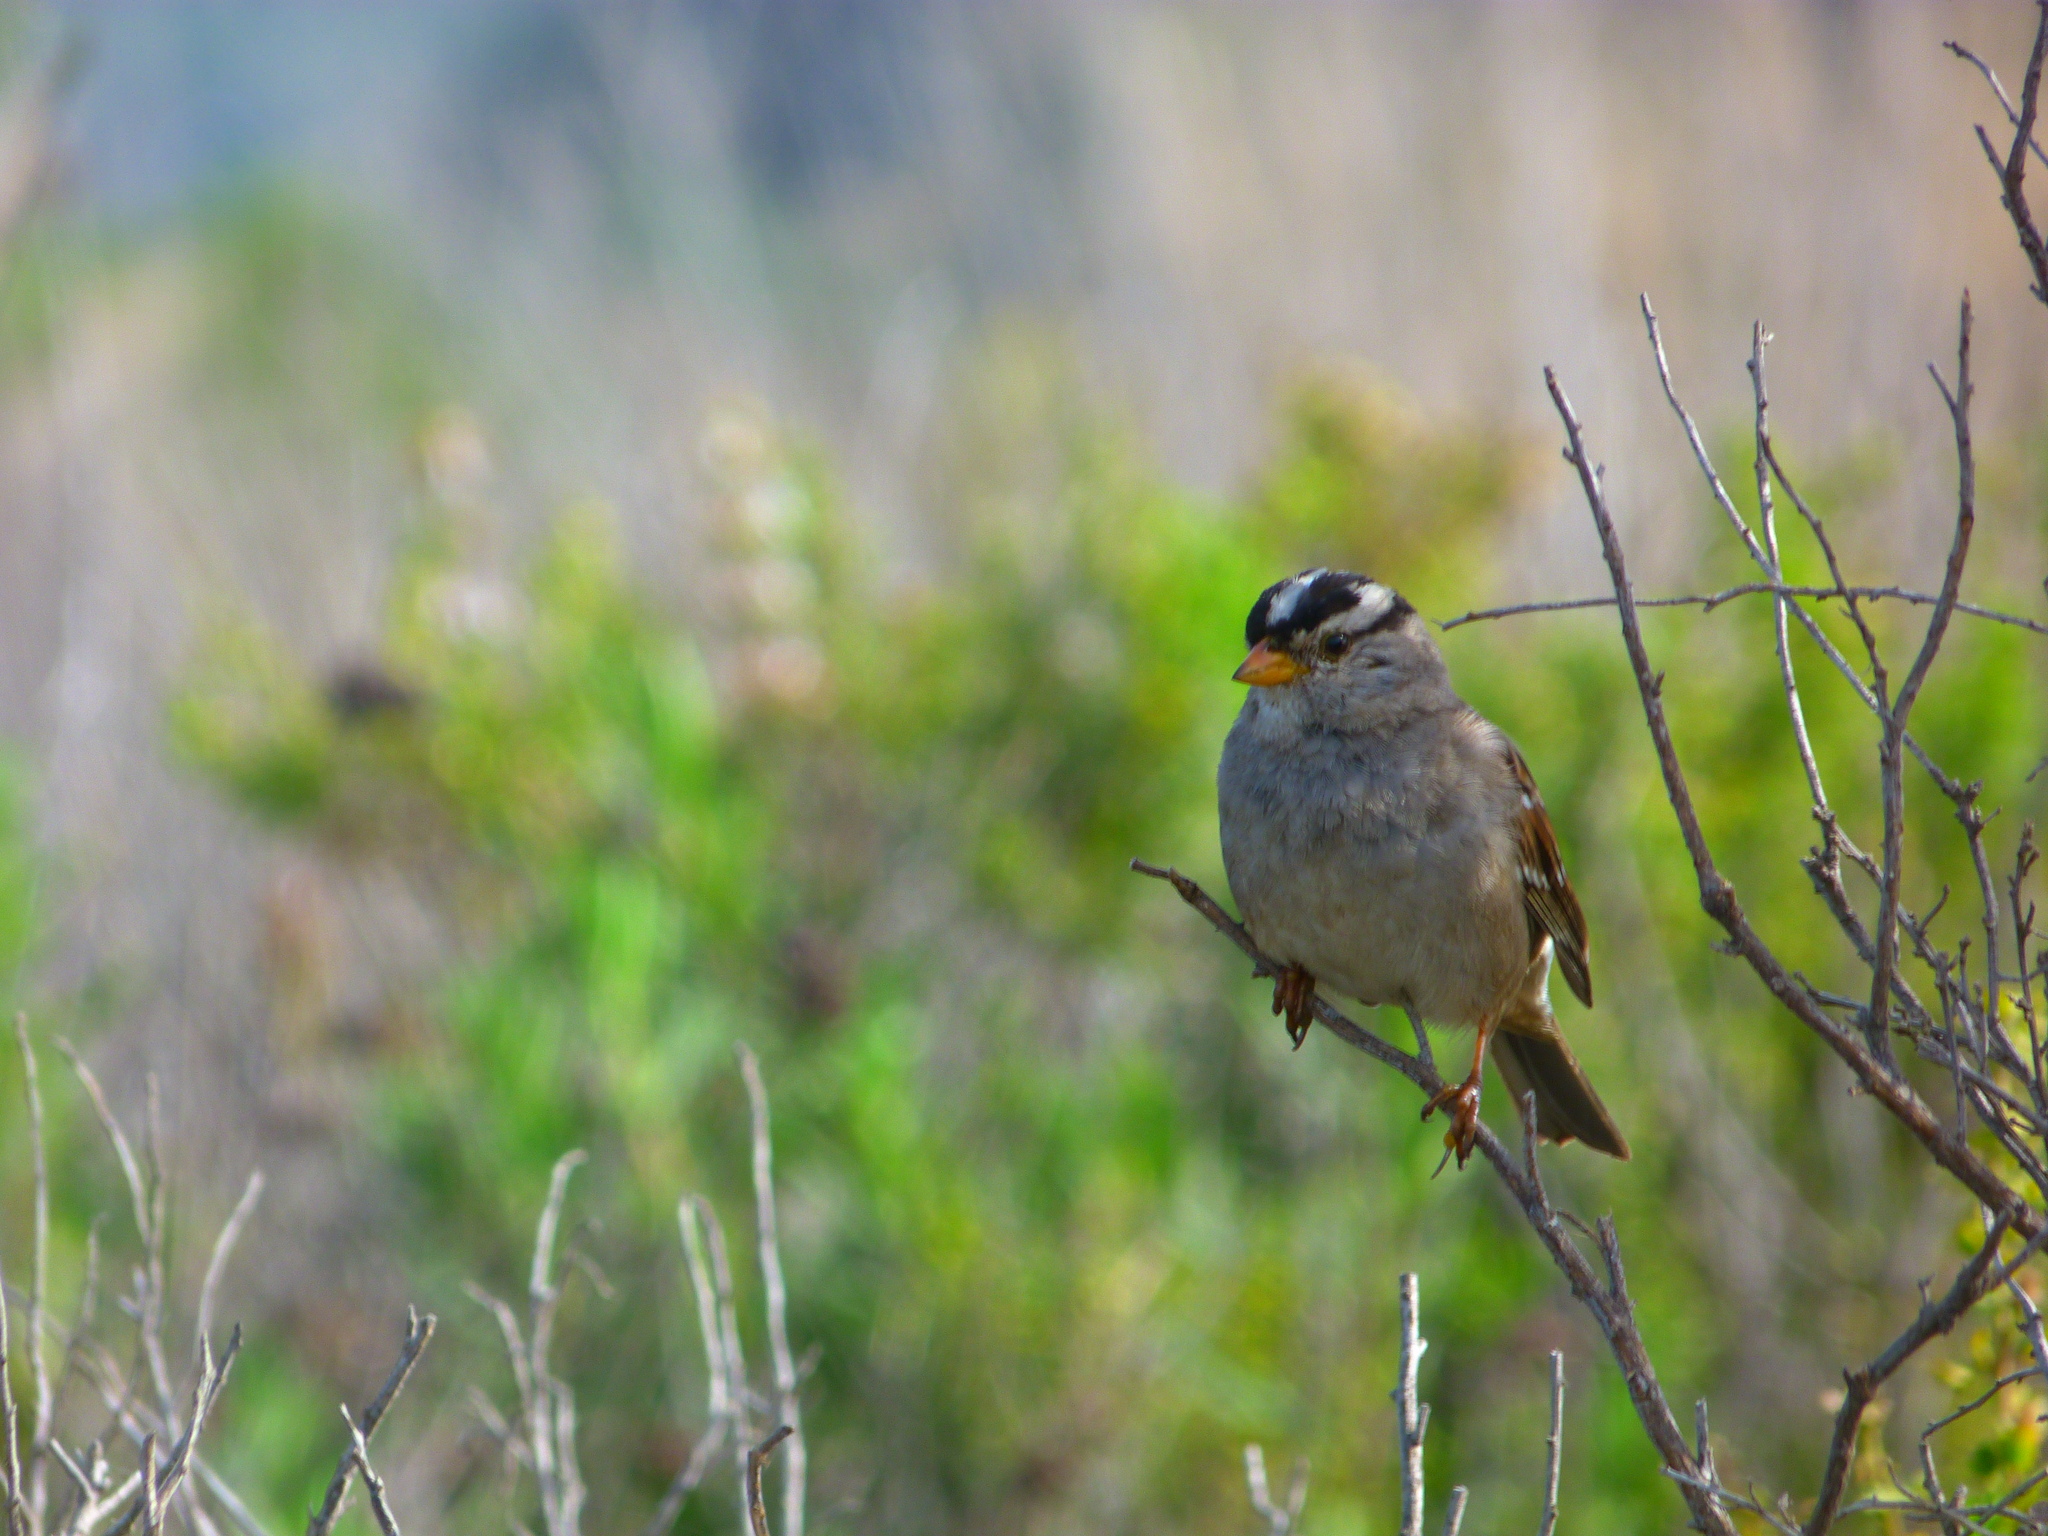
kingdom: Animalia
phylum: Chordata
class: Aves
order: Passeriformes
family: Passerellidae
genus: Zonotrichia
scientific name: Zonotrichia leucophrys
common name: White-crowned sparrow
